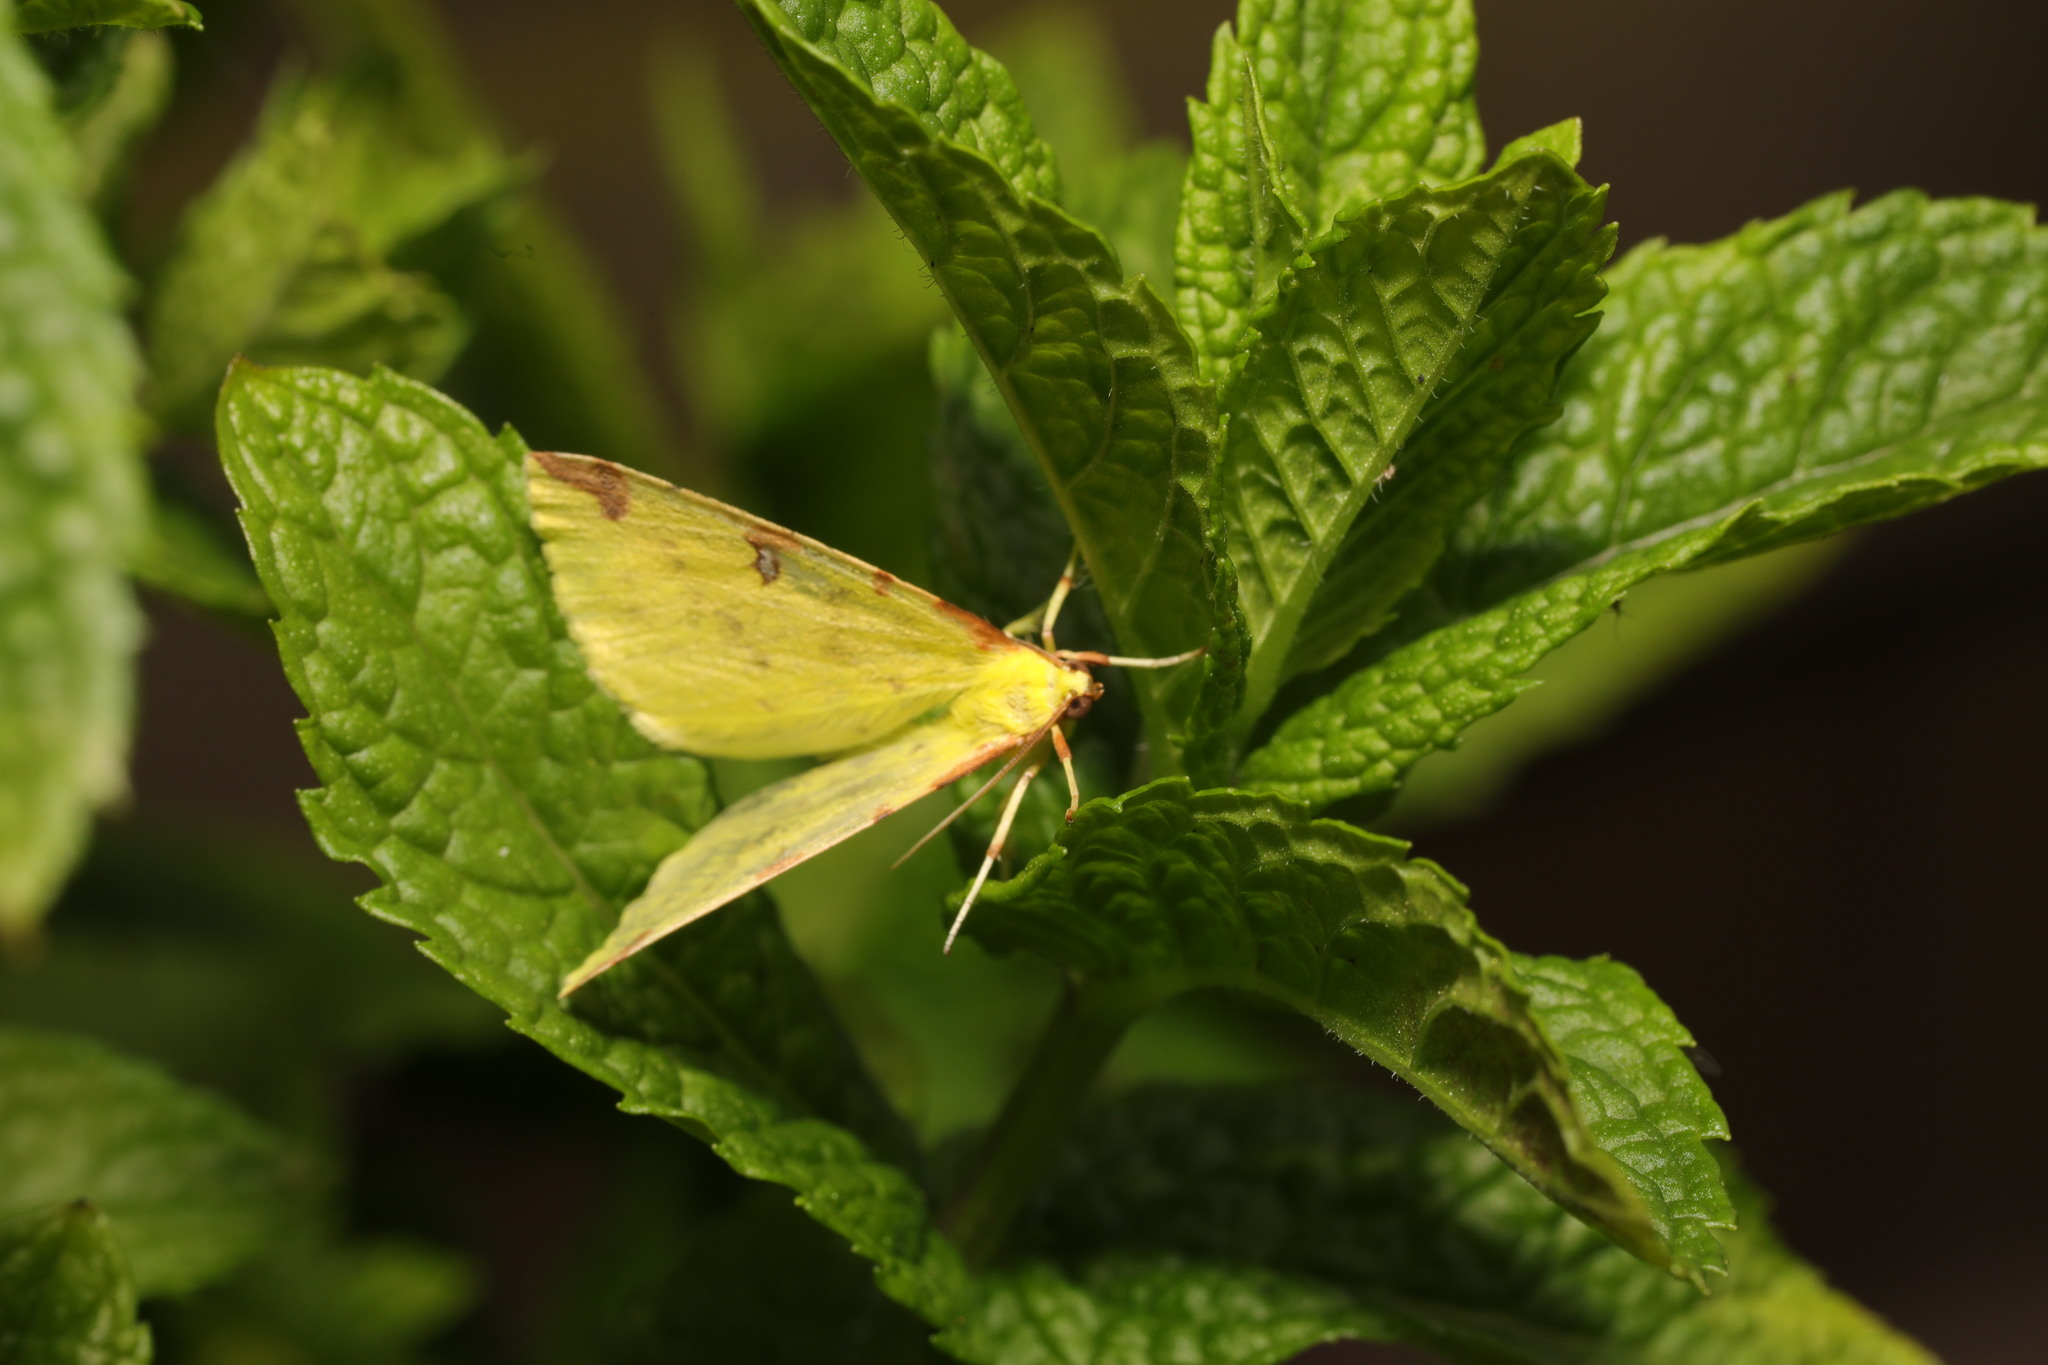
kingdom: Animalia
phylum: Arthropoda
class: Insecta
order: Lepidoptera
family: Geometridae
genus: Opisthograptis
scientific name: Opisthograptis luteolata
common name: Brimstone moth
